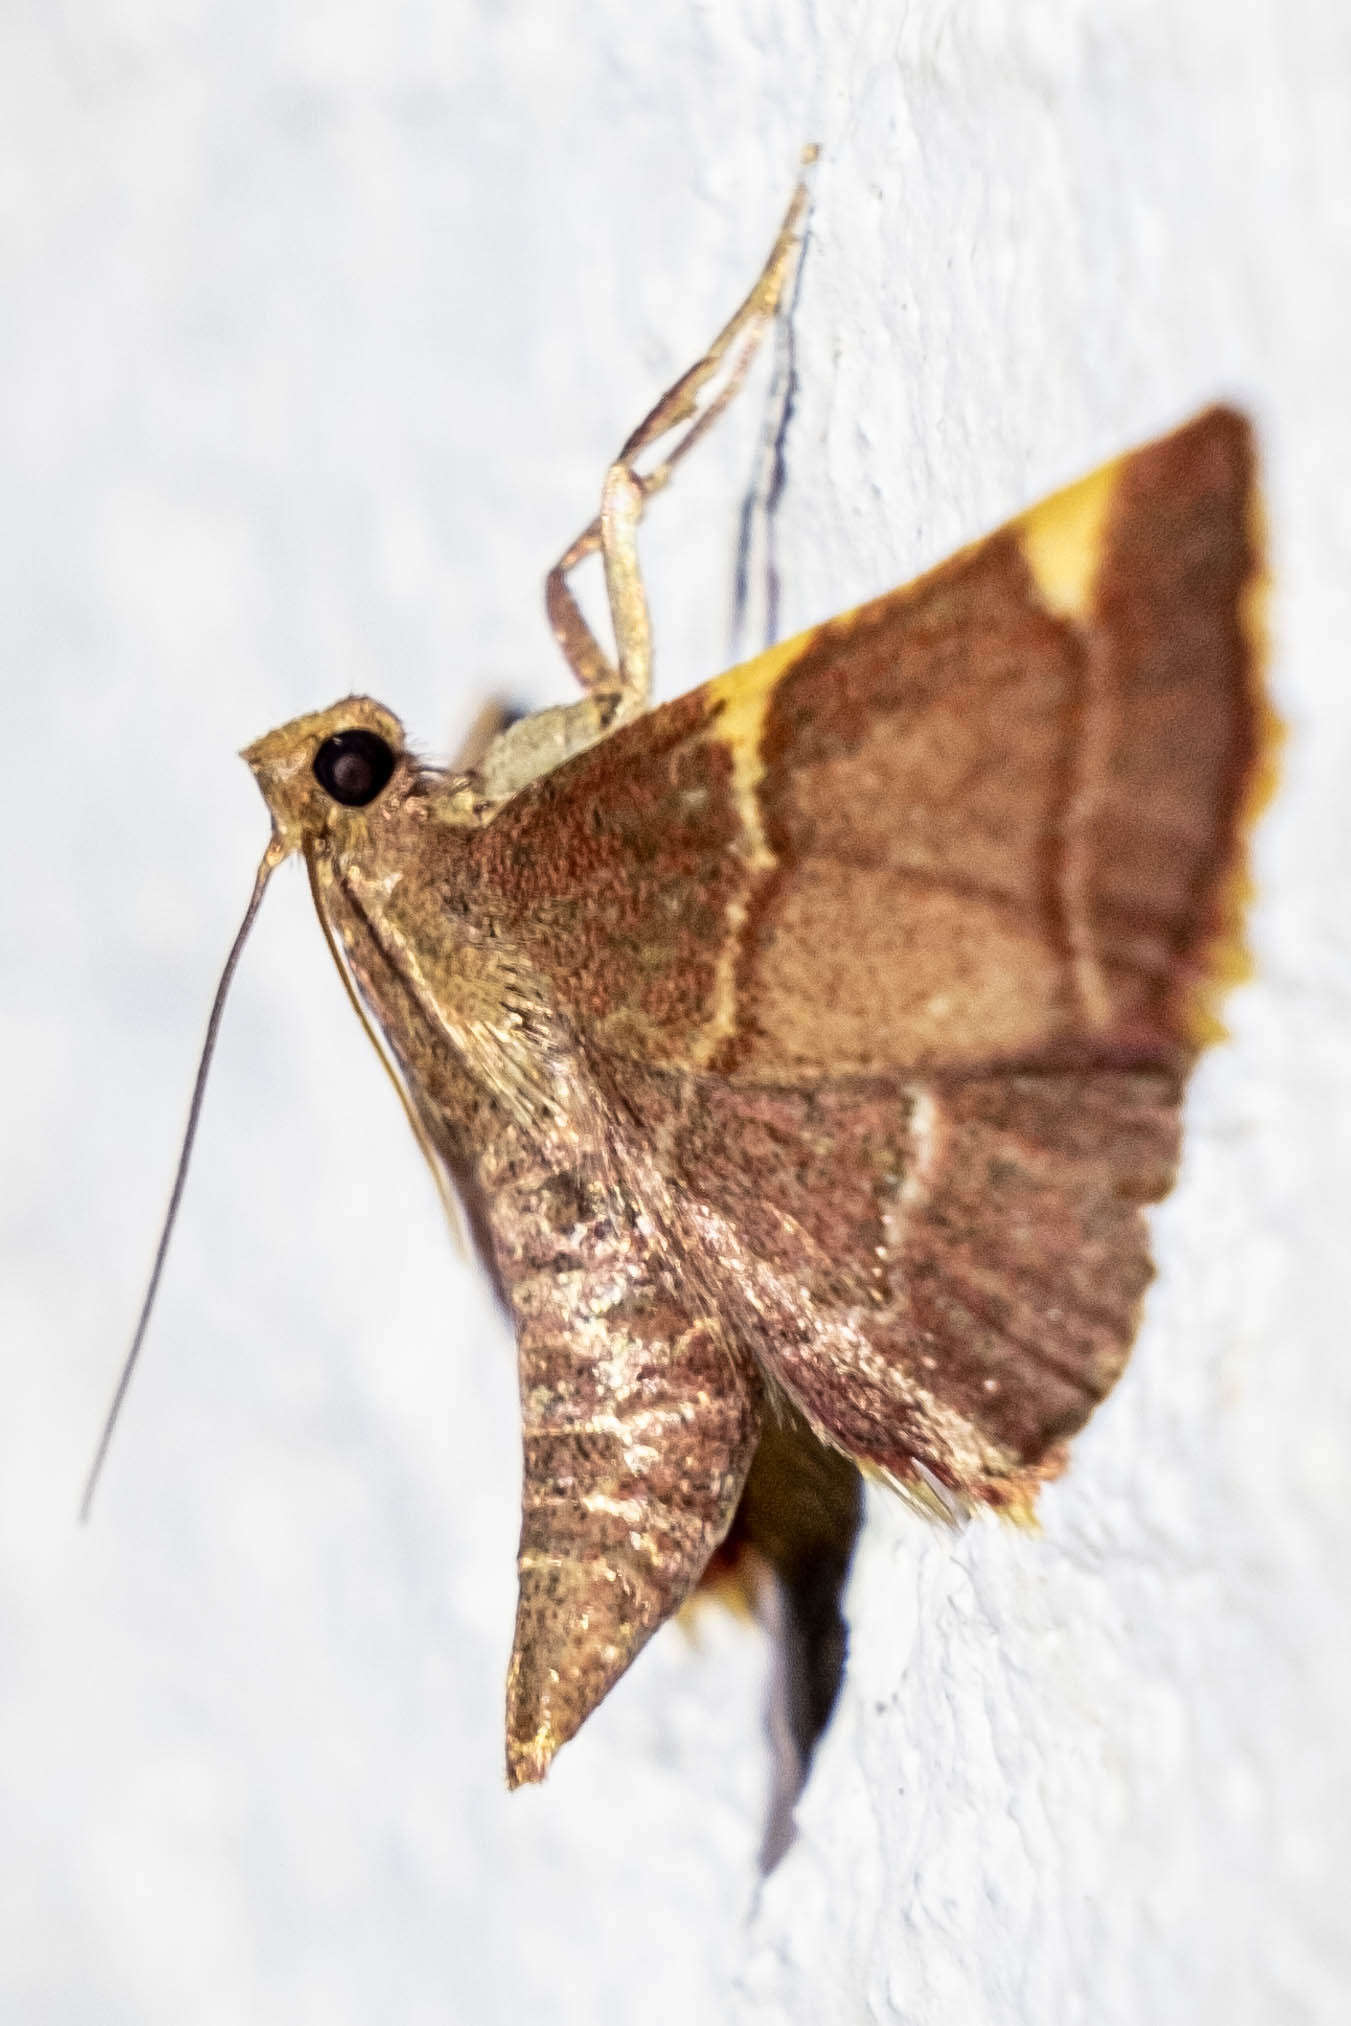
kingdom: Animalia
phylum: Arthropoda
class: Insecta
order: Lepidoptera
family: Pyralidae
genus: Hypsopygia
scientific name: Hypsopygia olinalis
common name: Yellow-fringed dolichomia moth
